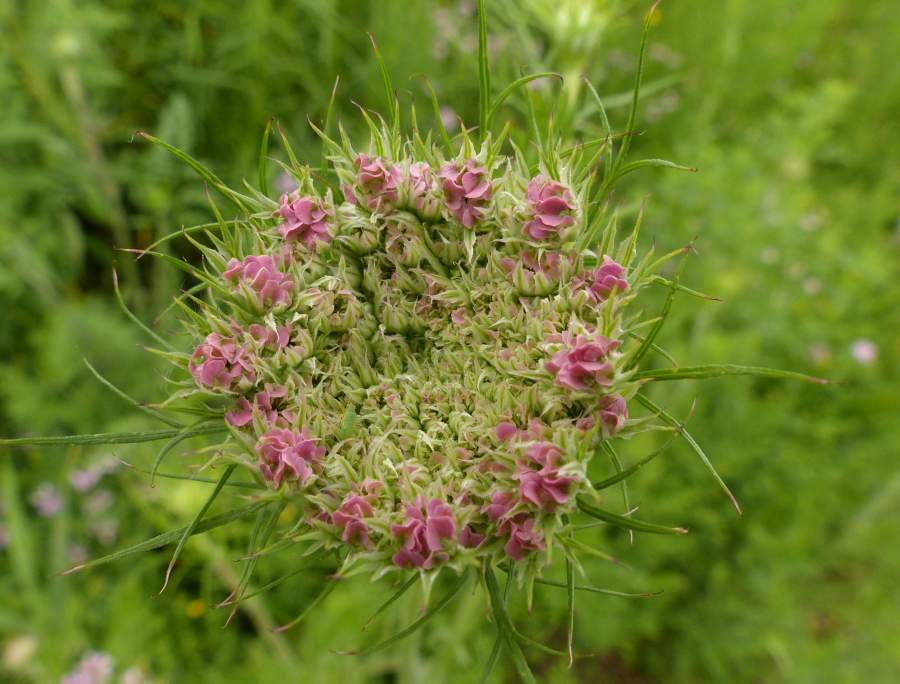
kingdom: Plantae
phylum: Tracheophyta
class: Magnoliopsida
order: Apiales
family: Apiaceae
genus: Daucus
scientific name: Daucus carota
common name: Wild carrot
